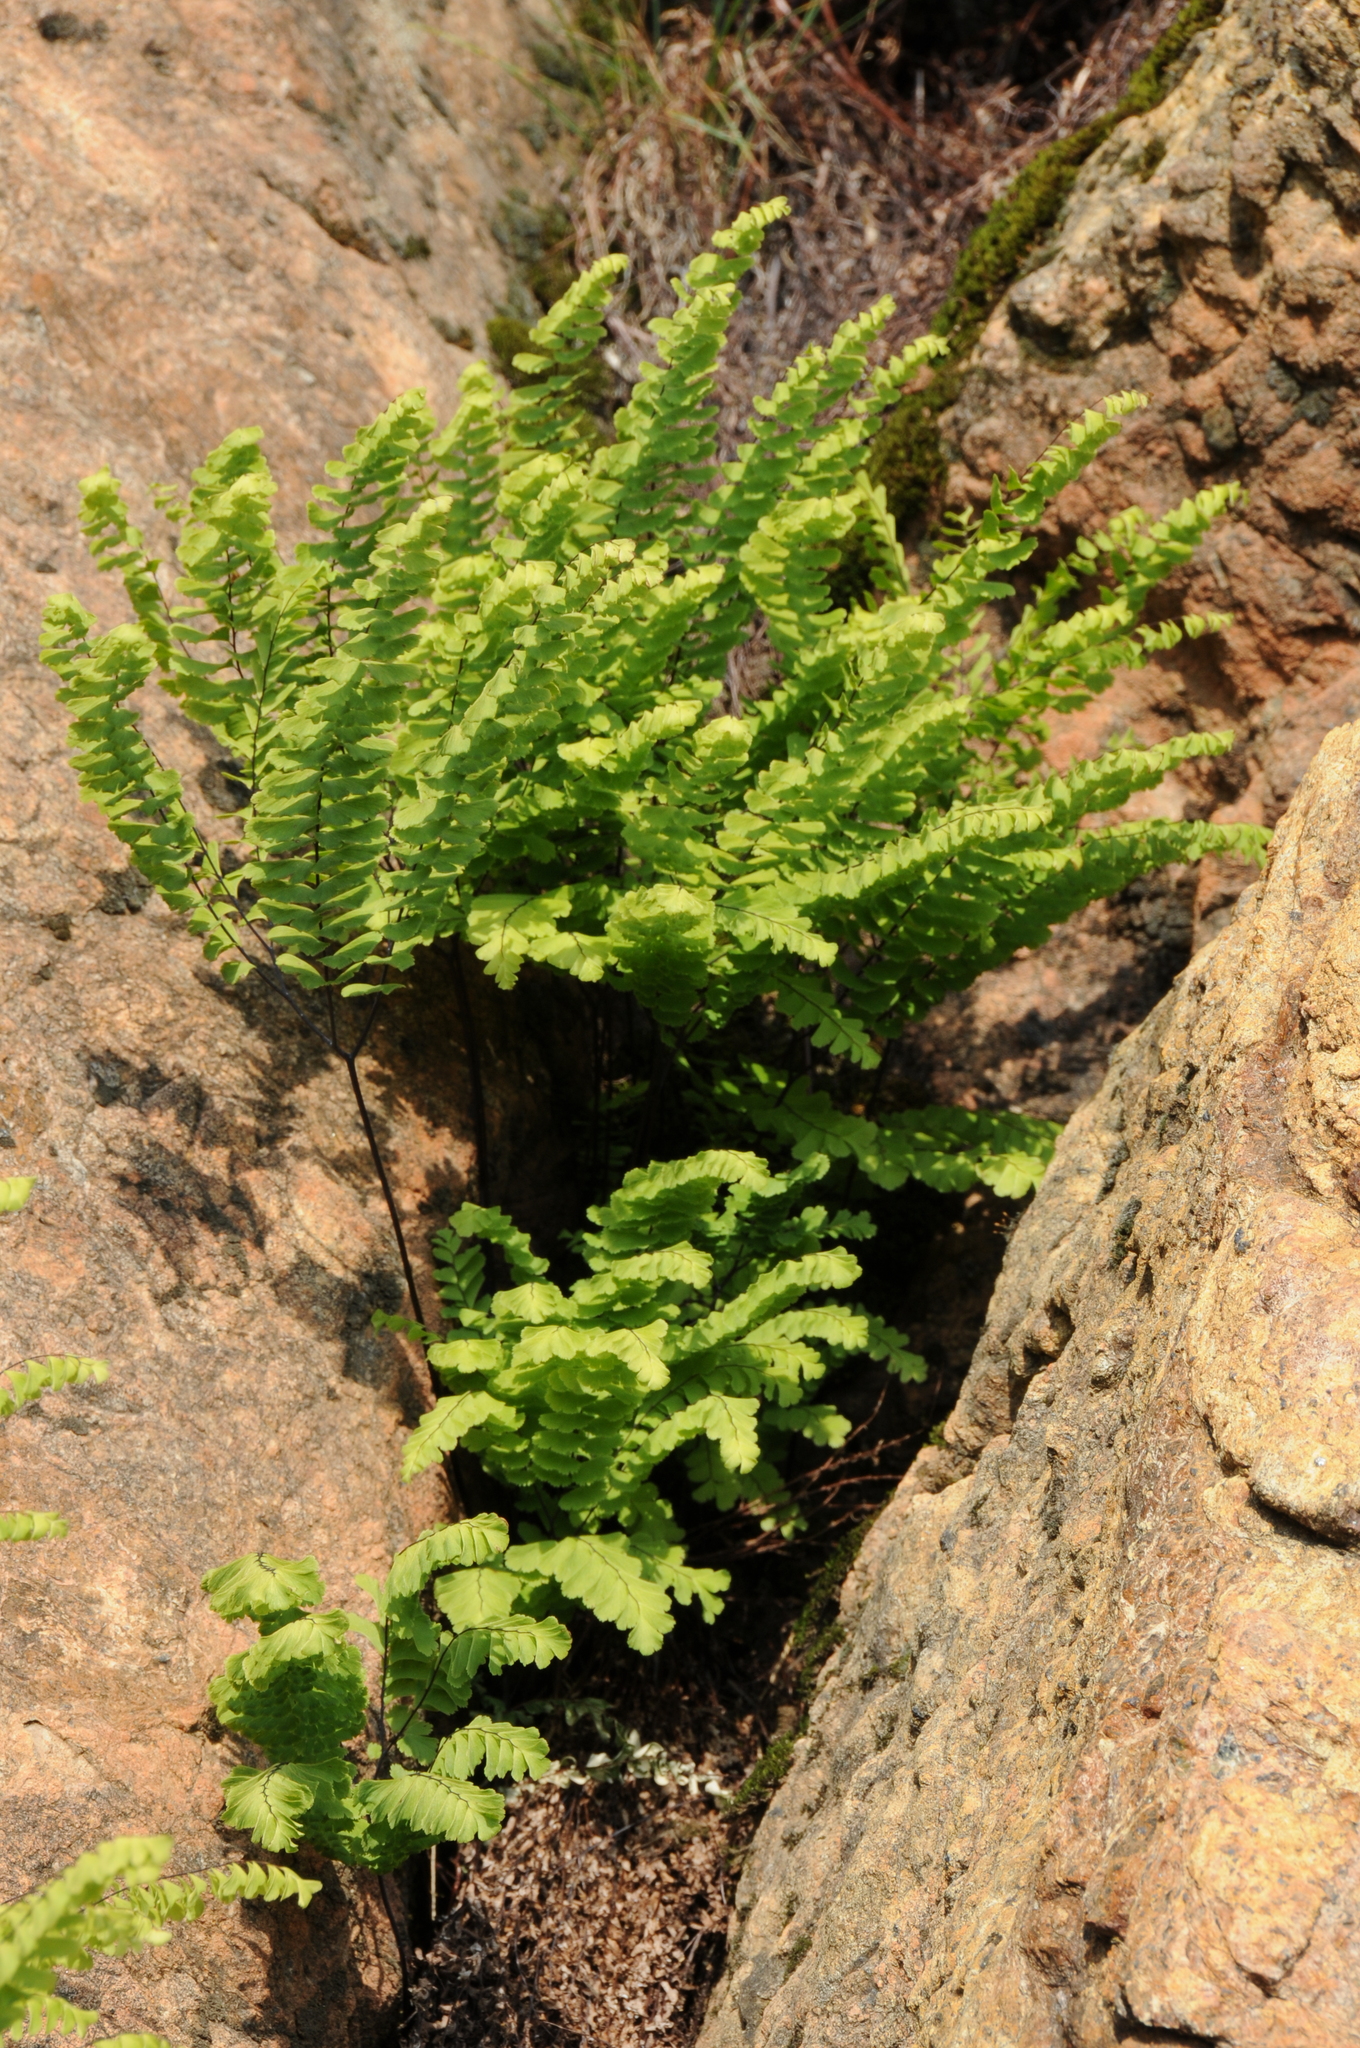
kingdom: Plantae
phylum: Tracheophyta
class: Polypodiopsida
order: Polypodiales
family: Pteridaceae
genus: Adiantum
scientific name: Adiantum aleuticum
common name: Aleutian maidenhair fern
